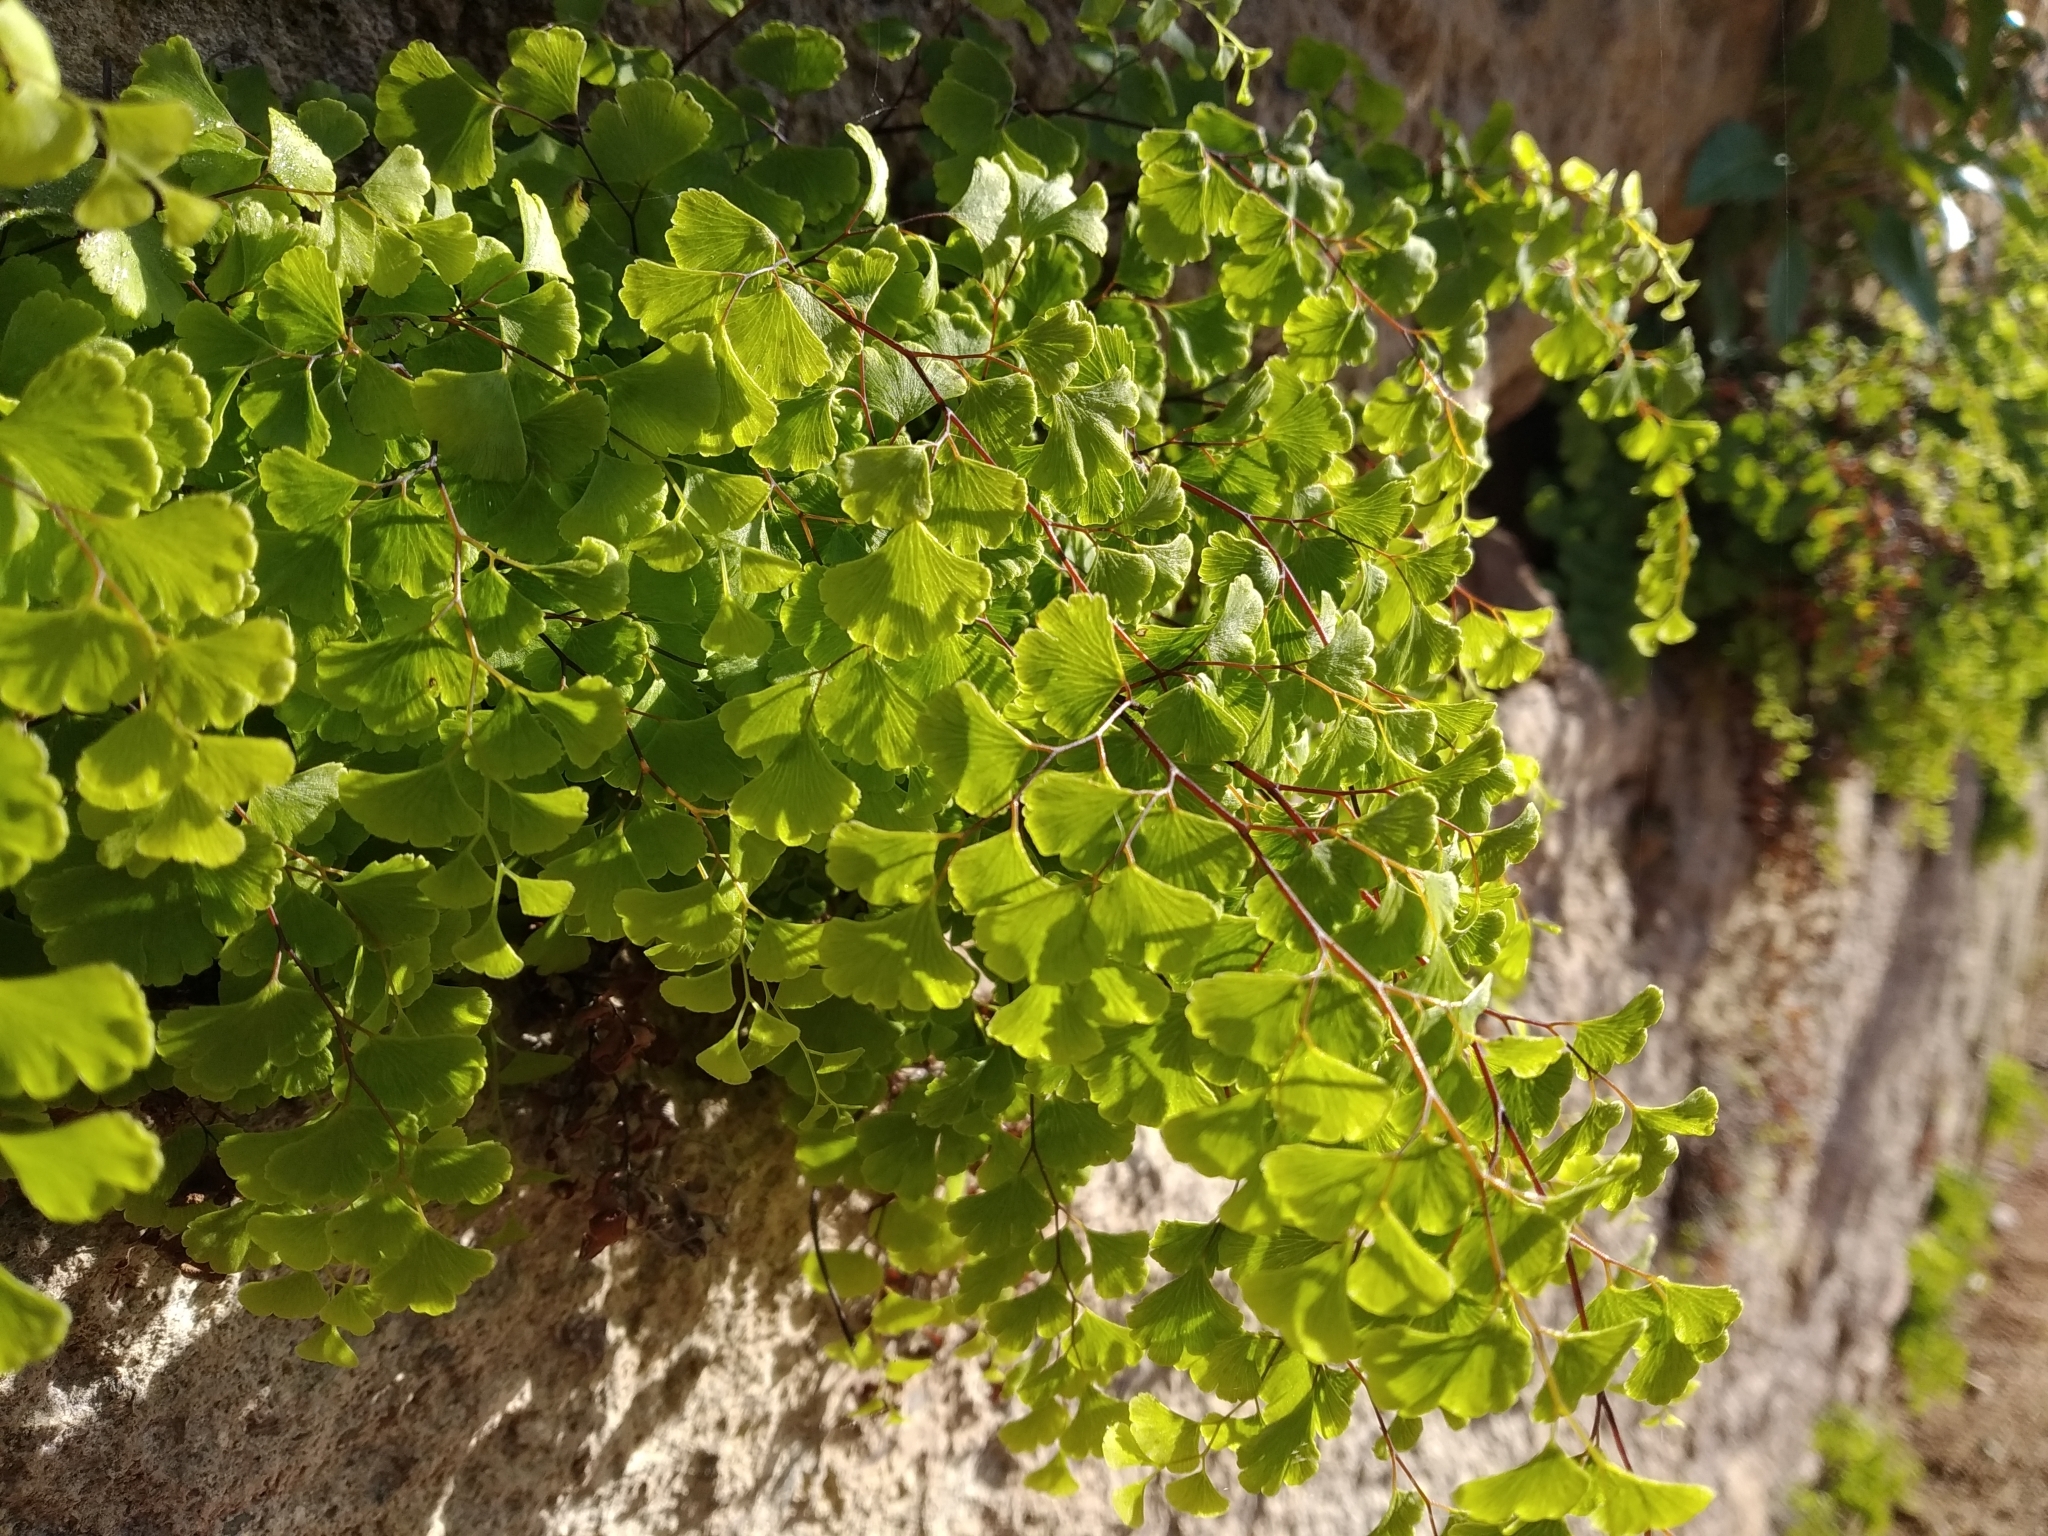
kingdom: Plantae
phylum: Tracheophyta
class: Polypodiopsida
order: Polypodiales
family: Pteridaceae
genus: Adiantum
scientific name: Adiantum capillus-veneris
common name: Maidenhair fern
